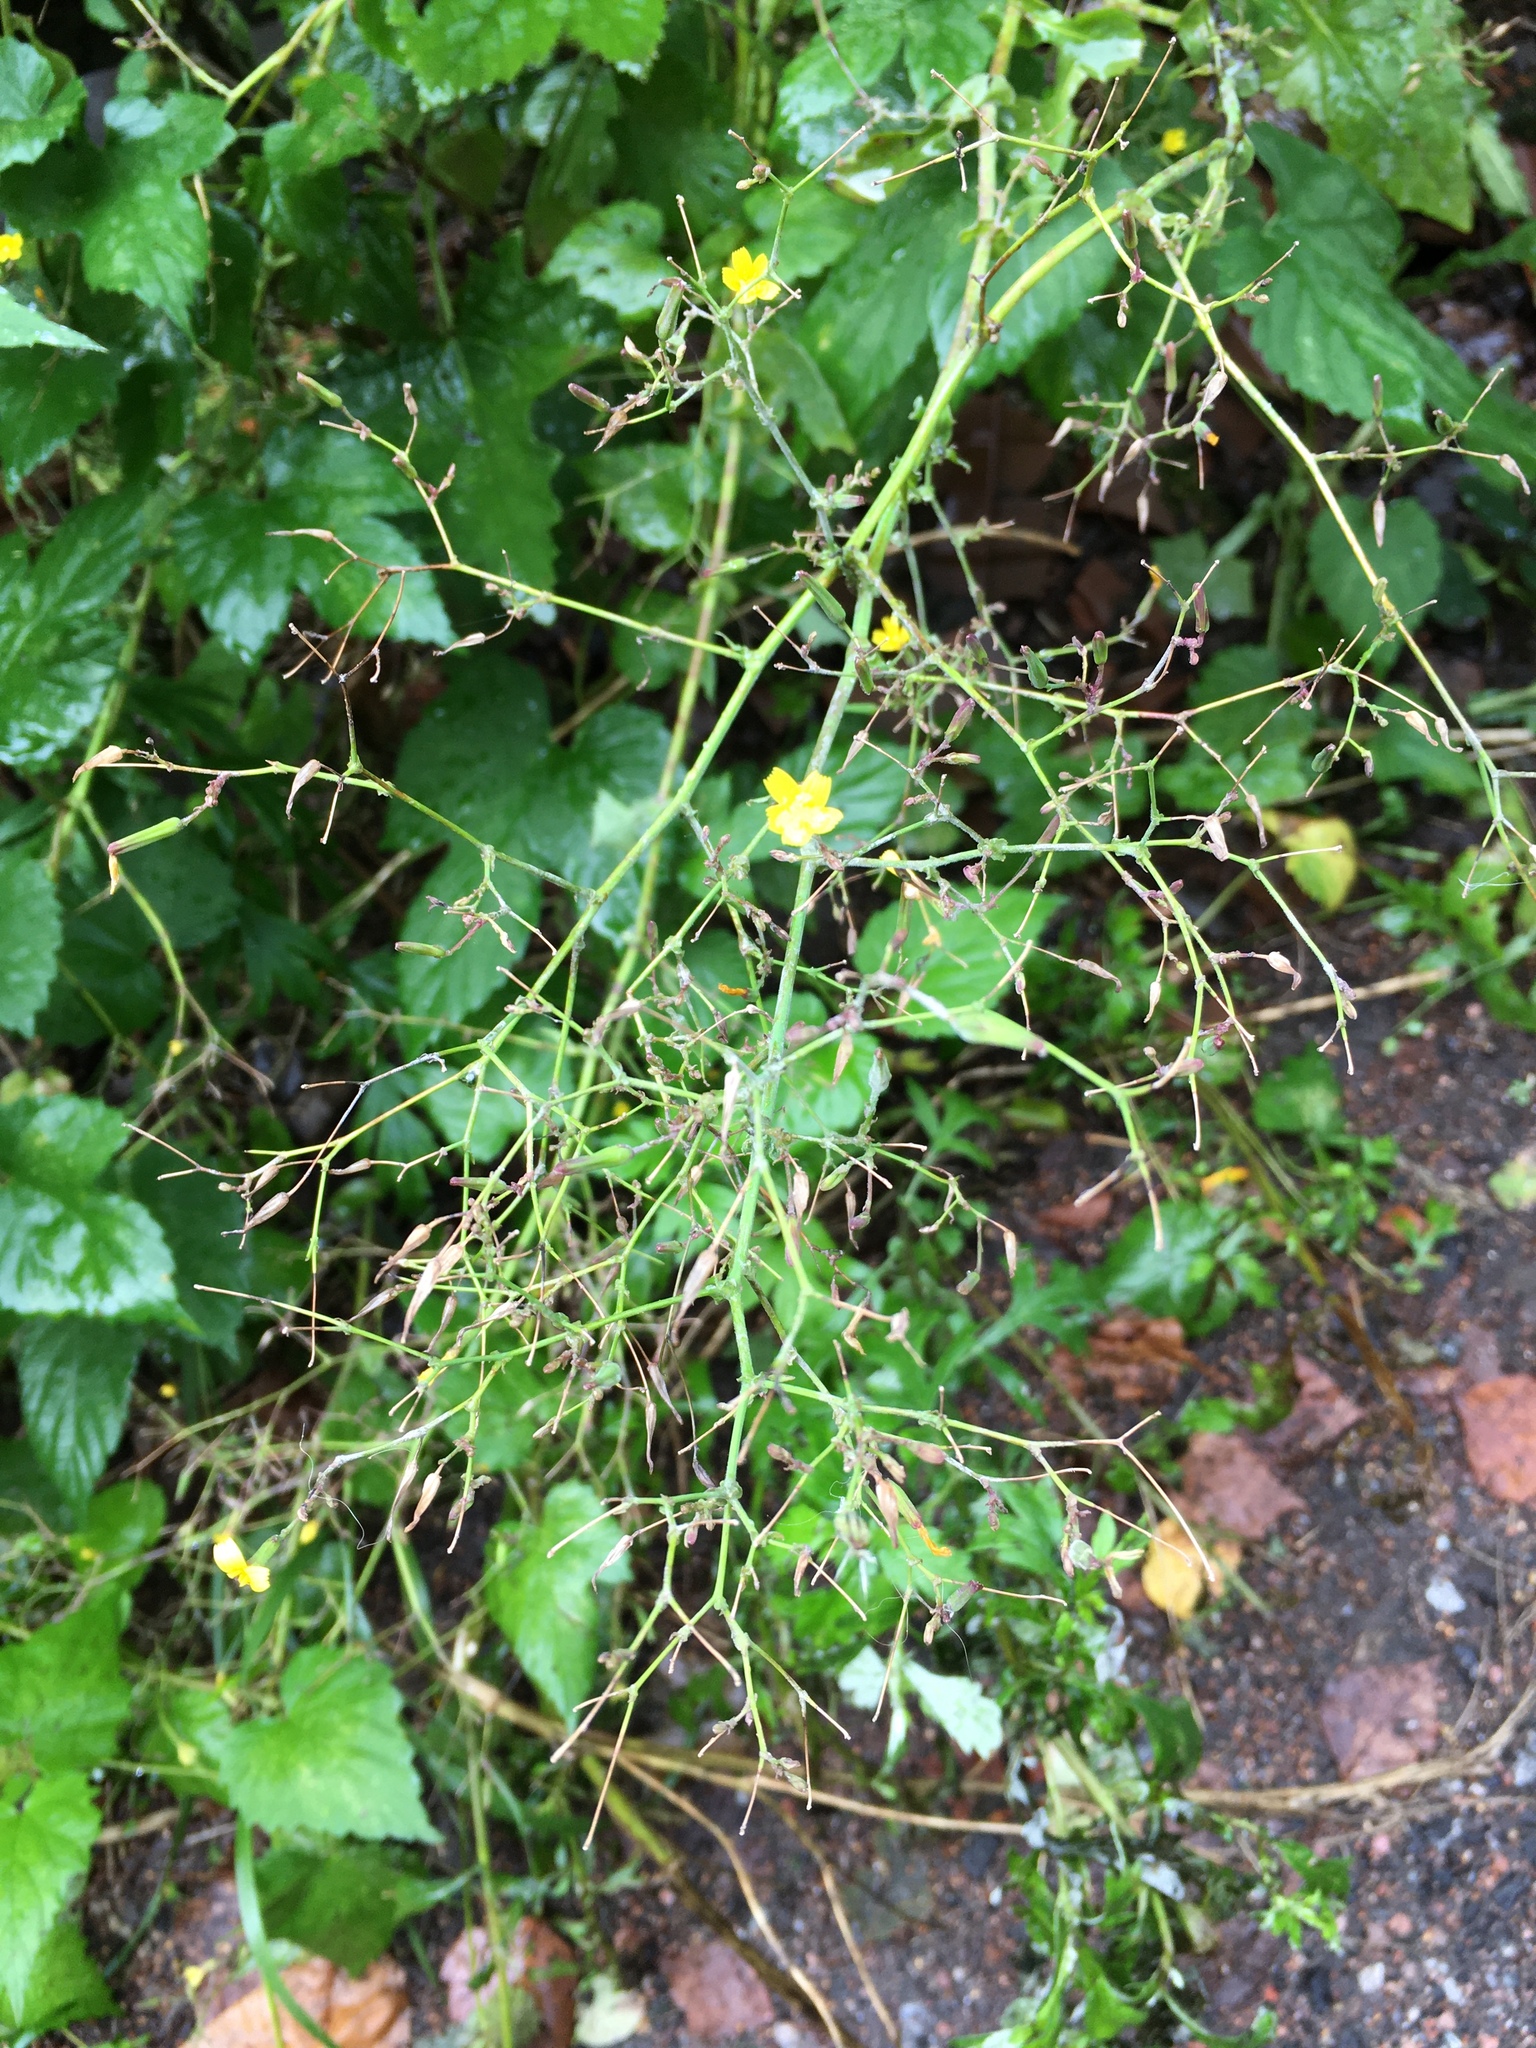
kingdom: Plantae
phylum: Tracheophyta
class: Magnoliopsida
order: Asterales
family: Asteraceae
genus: Mycelis
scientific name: Mycelis muralis
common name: Wall lettuce
